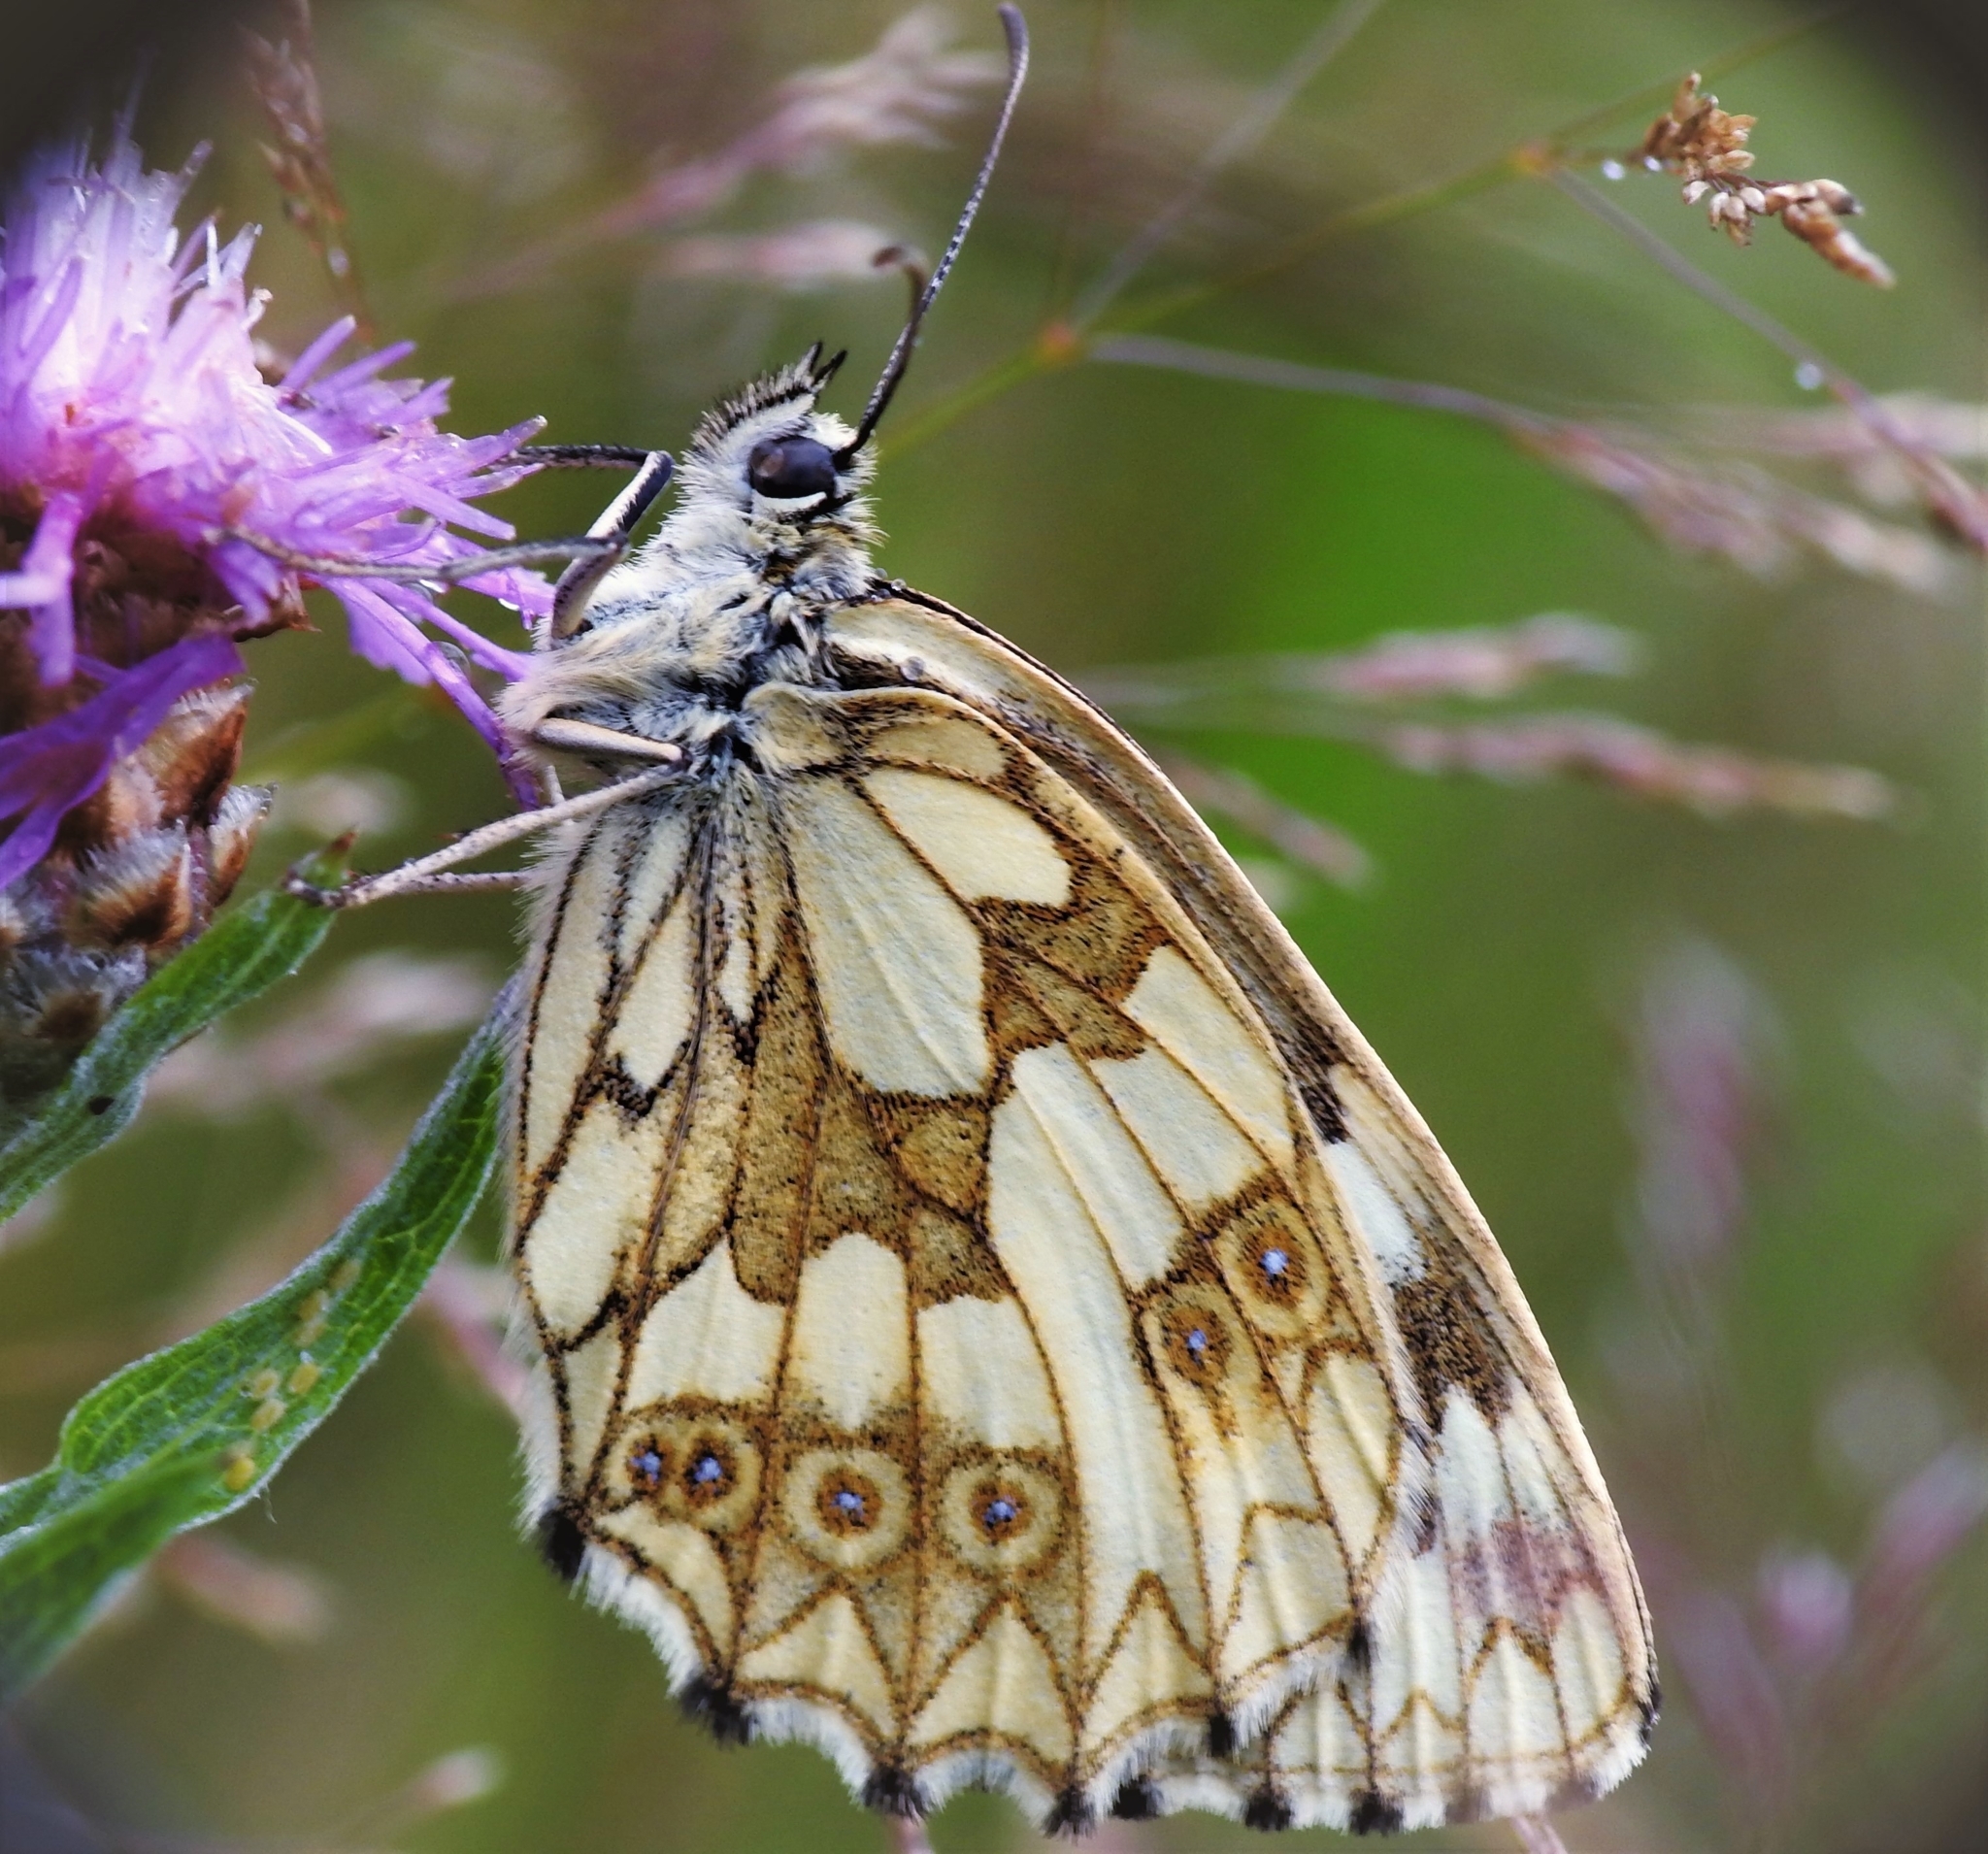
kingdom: Animalia
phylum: Arthropoda
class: Insecta
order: Lepidoptera
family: Nymphalidae
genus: Melanargia
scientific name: Melanargia galathea
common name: Marbled white
